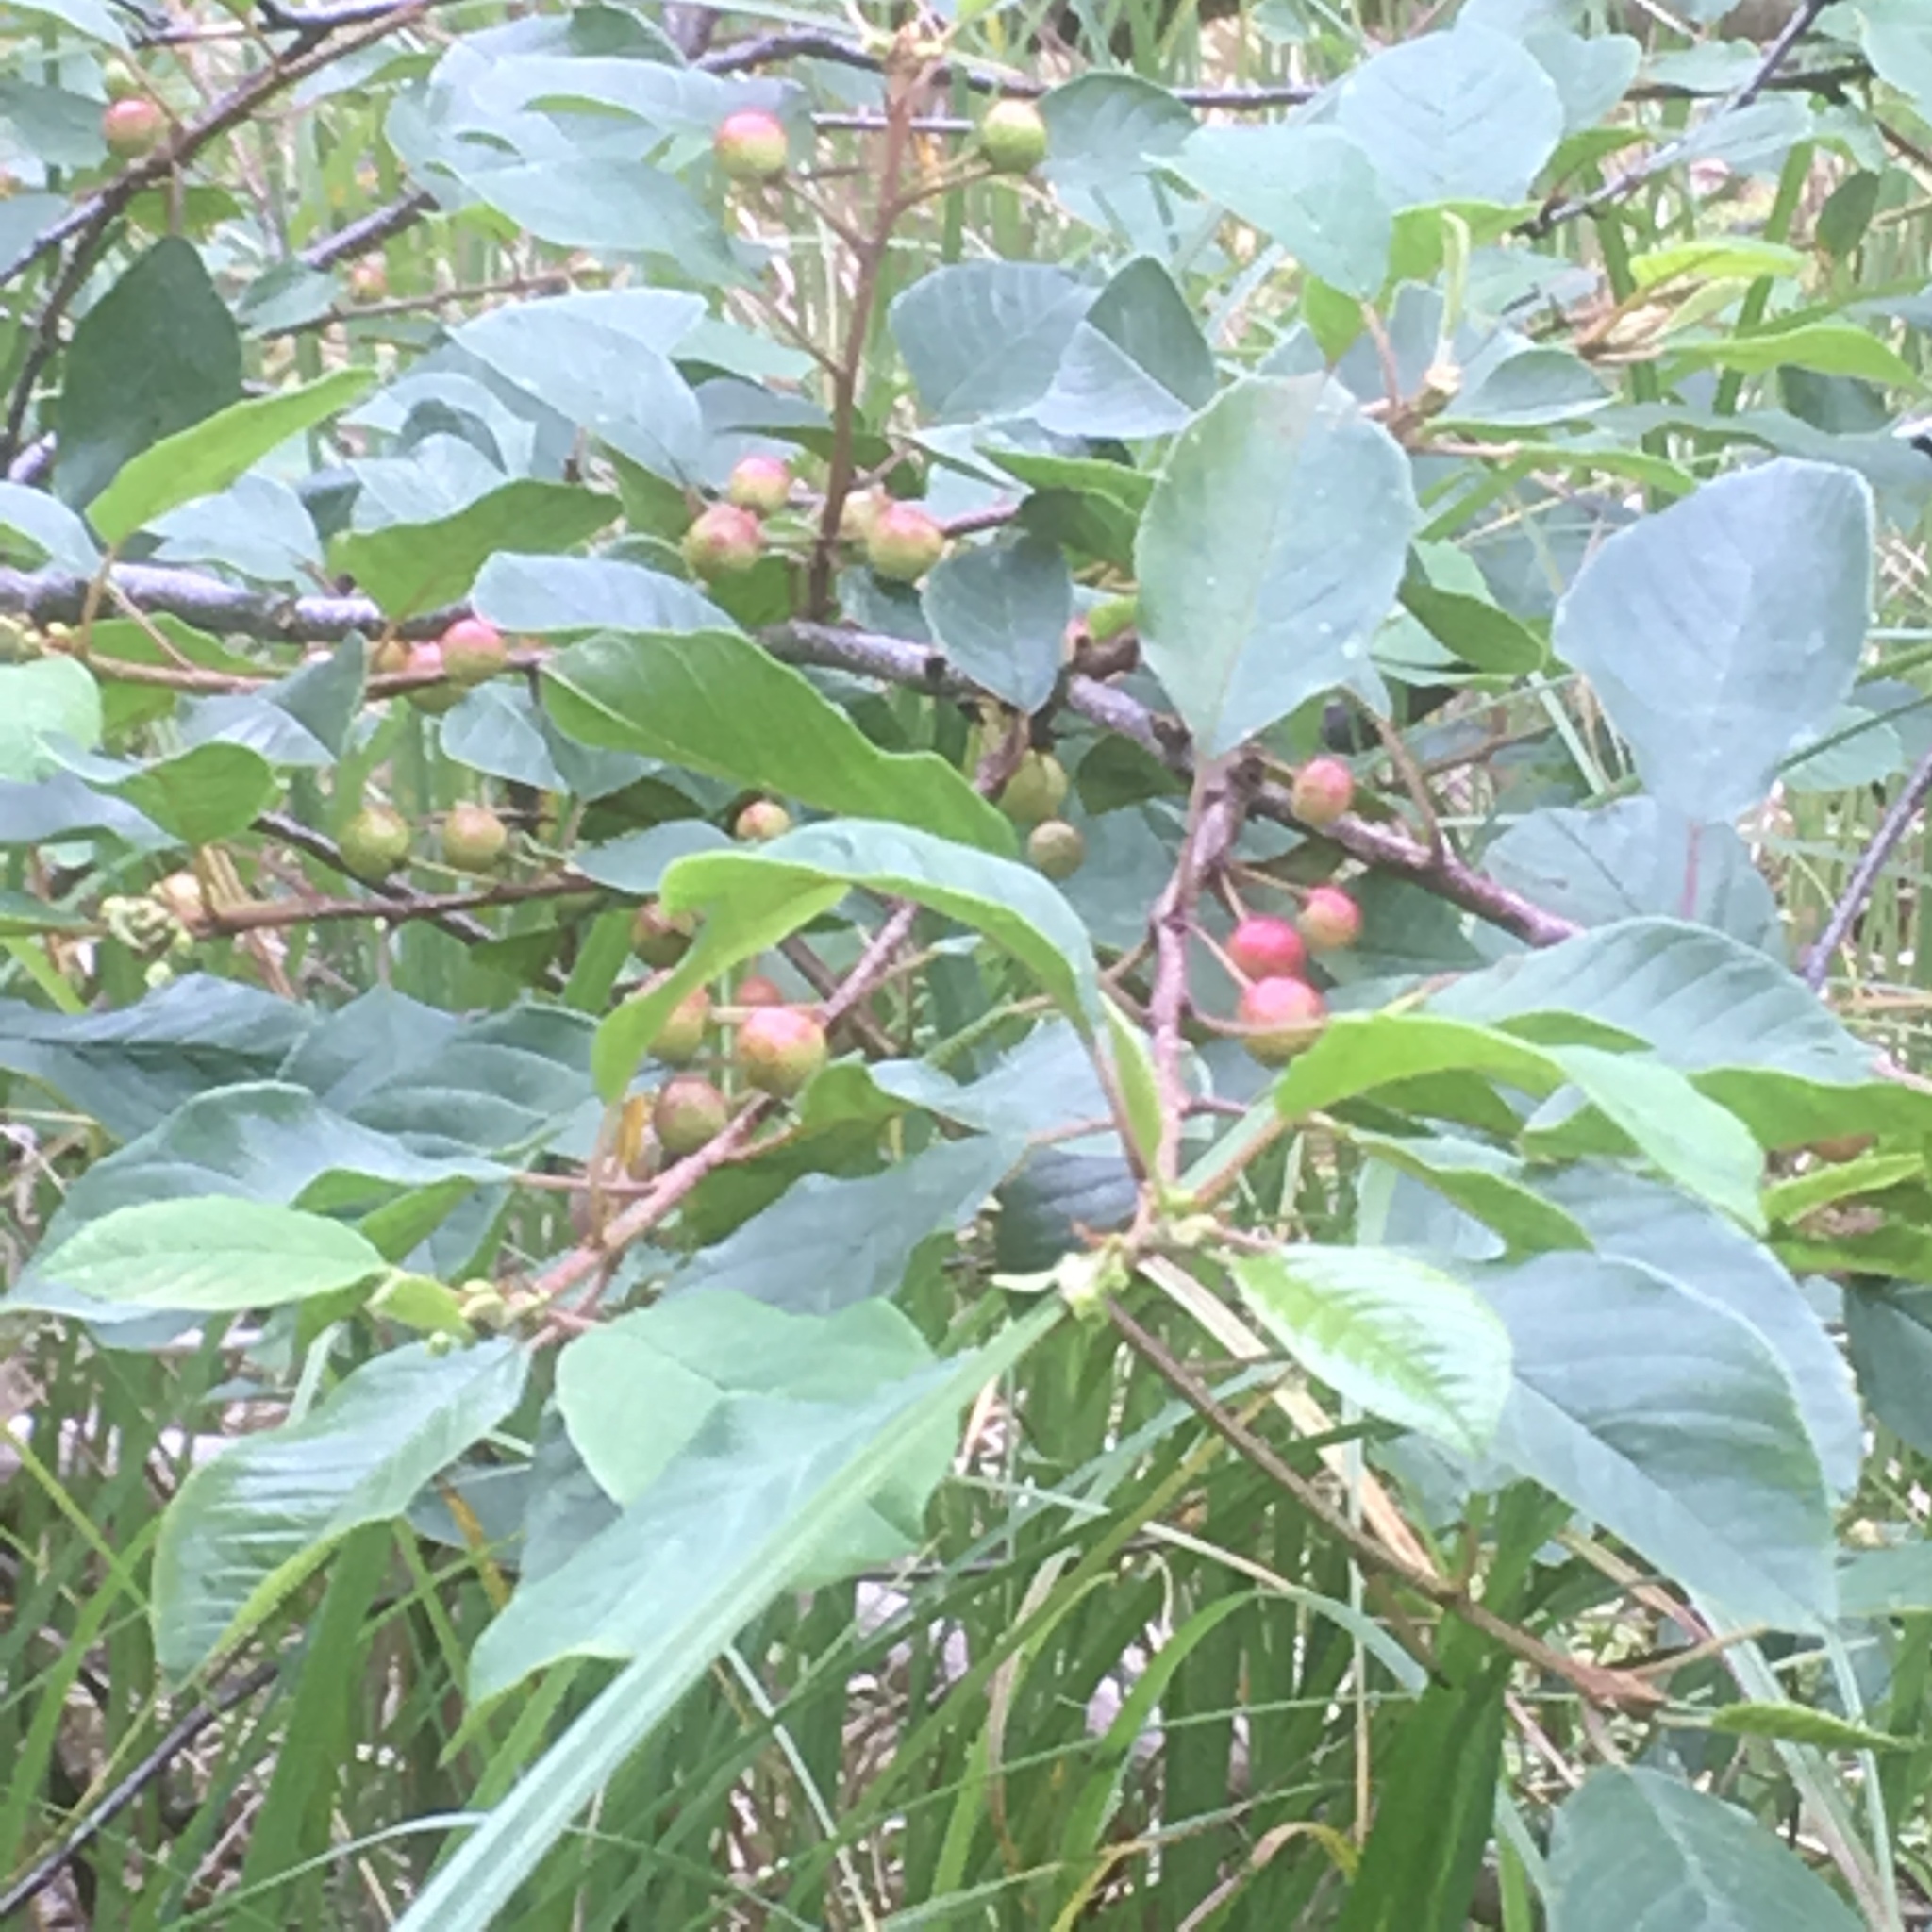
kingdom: Plantae
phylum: Tracheophyta
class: Magnoliopsida
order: Rosales
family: Rhamnaceae
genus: Frangula
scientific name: Frangula alnus
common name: Alder buckthorn
